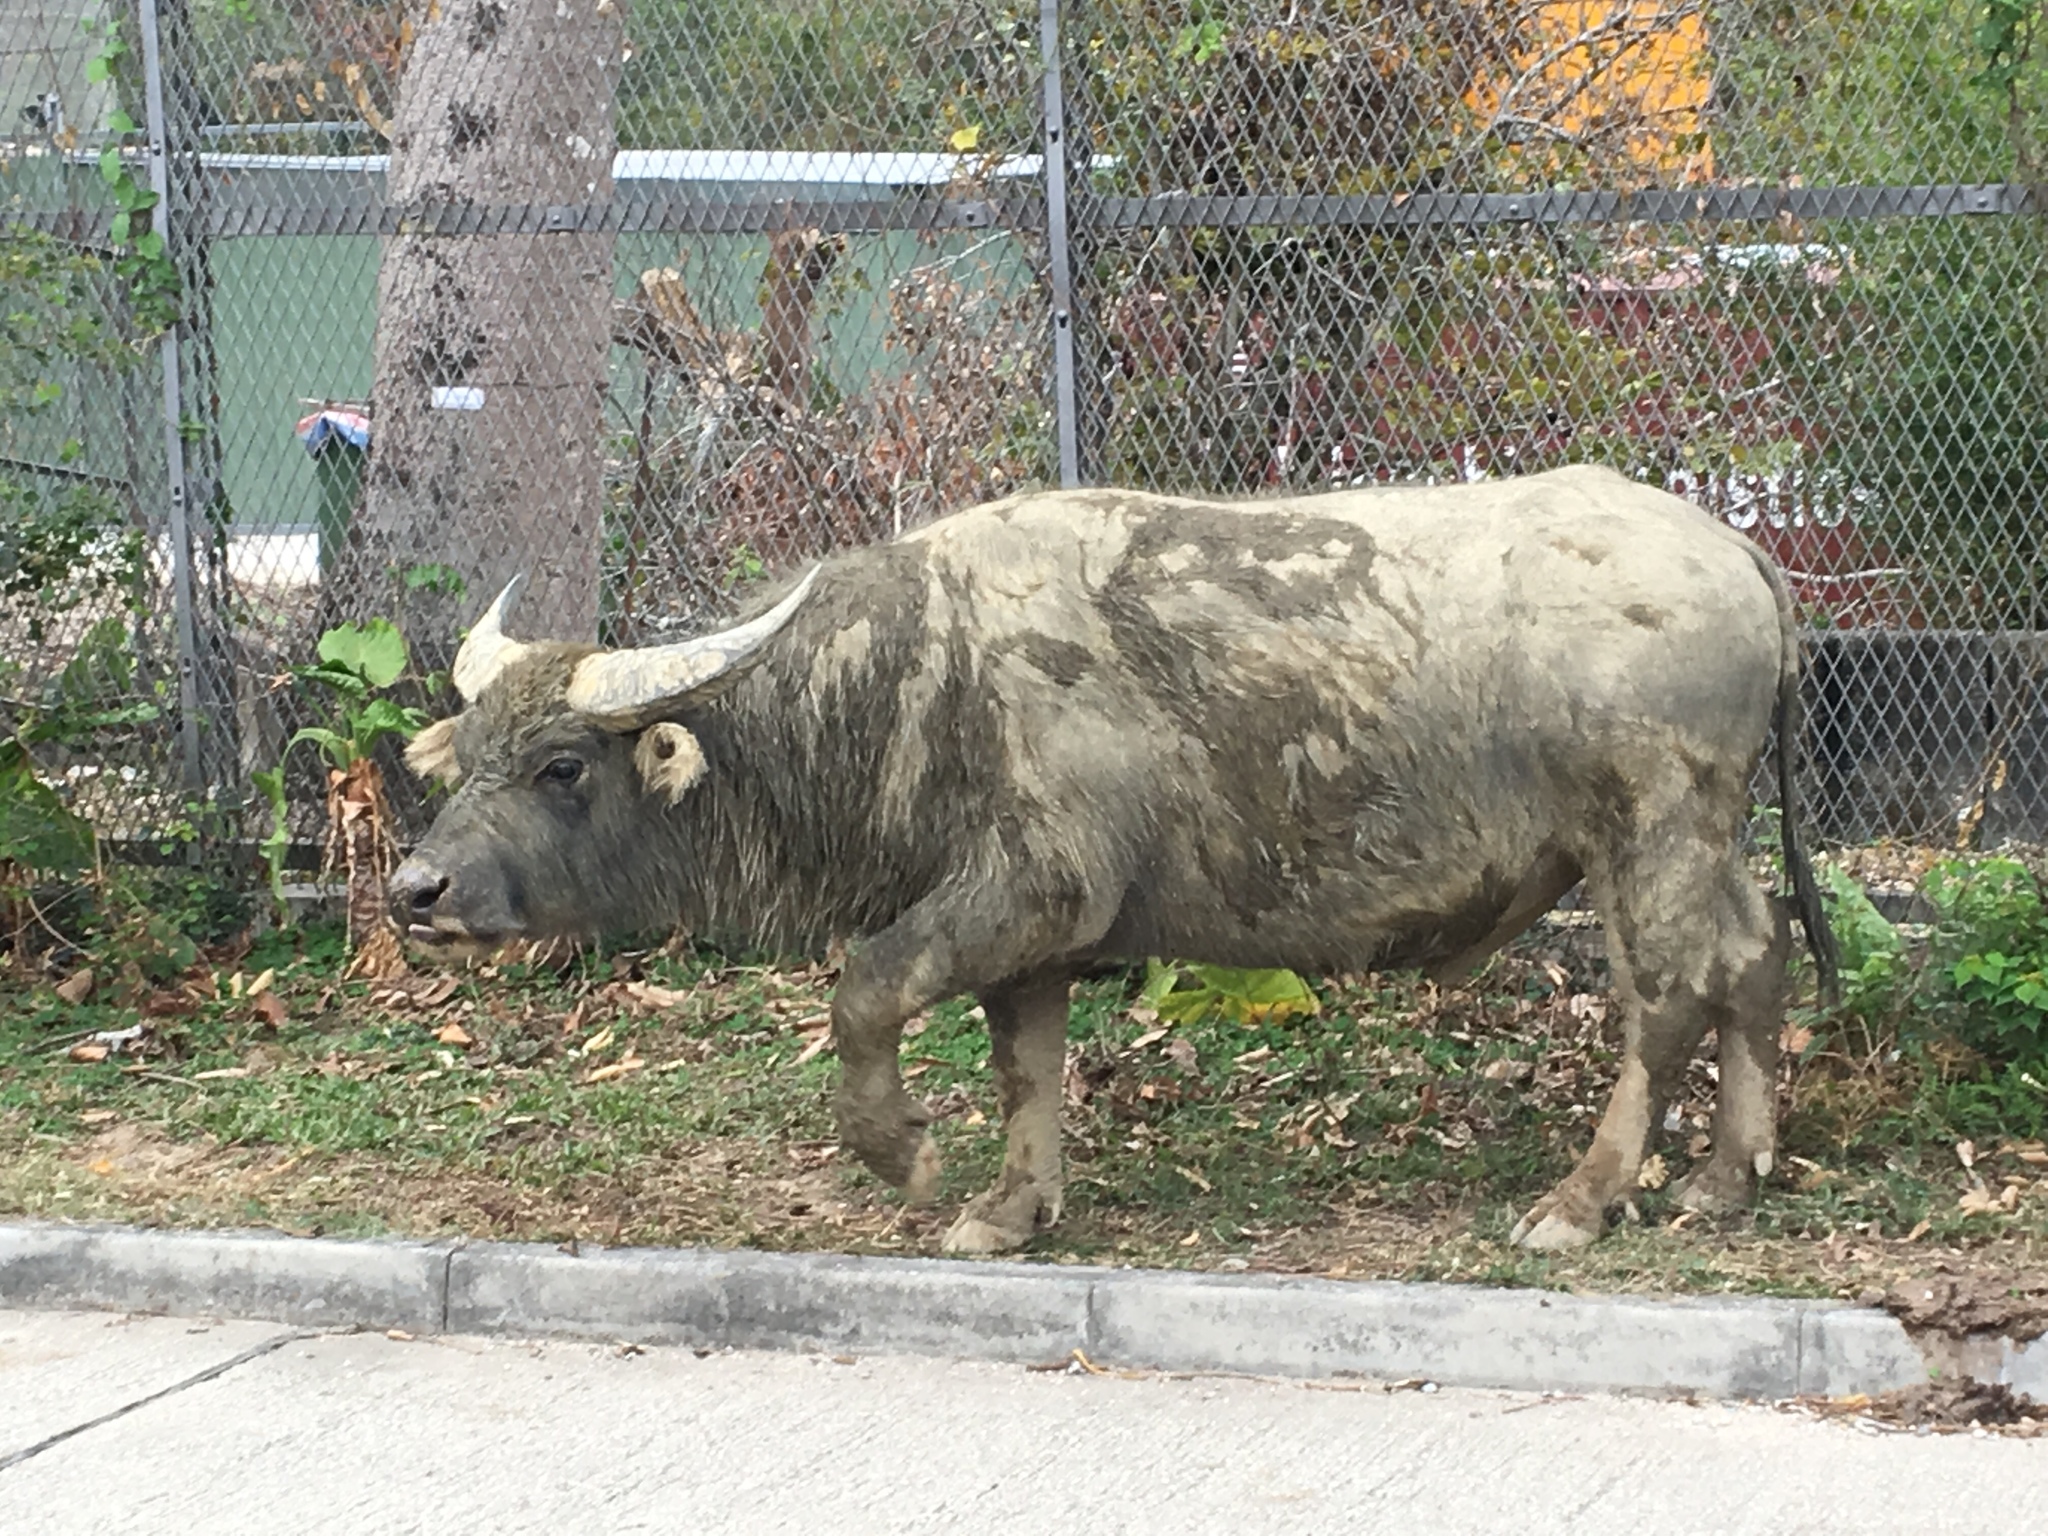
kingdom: Animalia
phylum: Chordata
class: Mammalia
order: Artiodactyla
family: Bovidae
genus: Bubalus
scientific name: Bubalus bubalis
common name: Water buffalo
